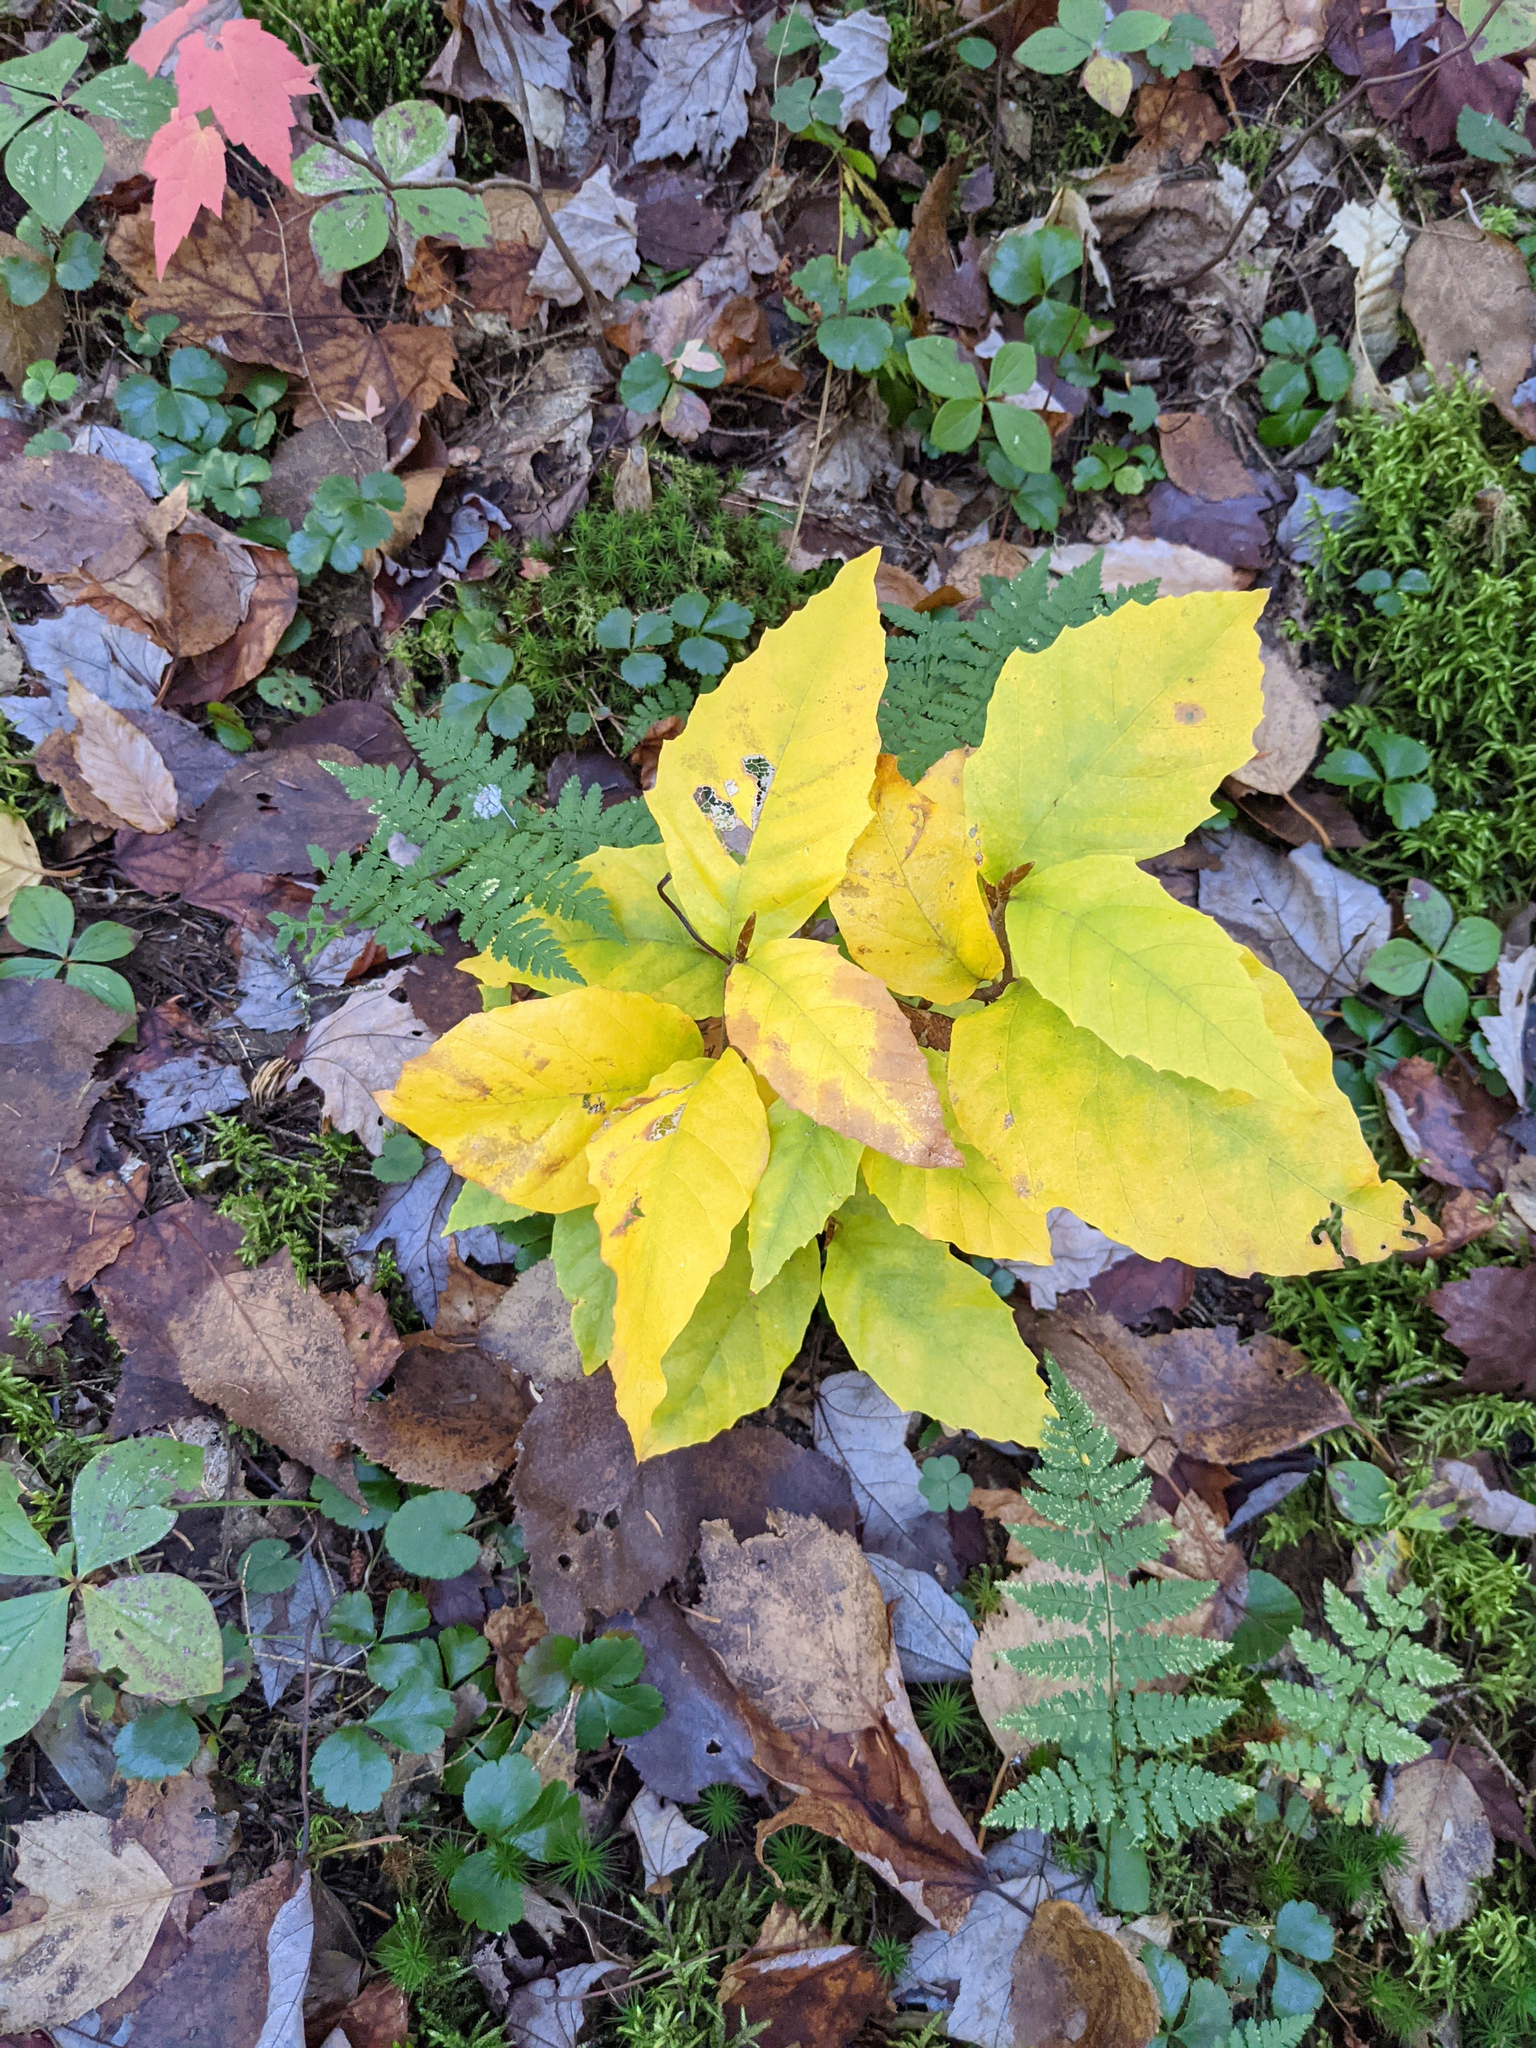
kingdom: Plantae
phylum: Tracheophyta
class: Magnoliopsida
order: Fagales
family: Fagaceae
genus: Fagus
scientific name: Fagus grandifolia
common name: American beech
